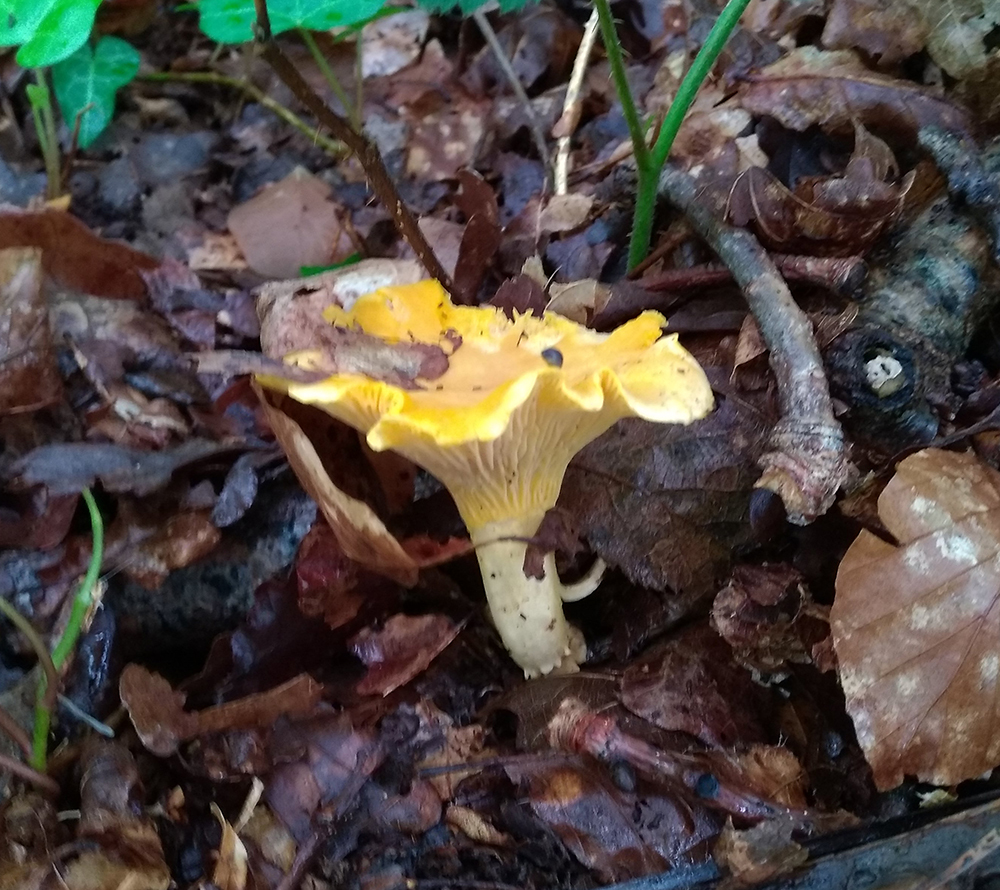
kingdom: Fungi
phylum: Basidiomycota
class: Agaricomycetes
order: Cantharellales
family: Hydnaceae
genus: Cantharellus
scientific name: Cantharellus cibarius
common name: Chanterelle
